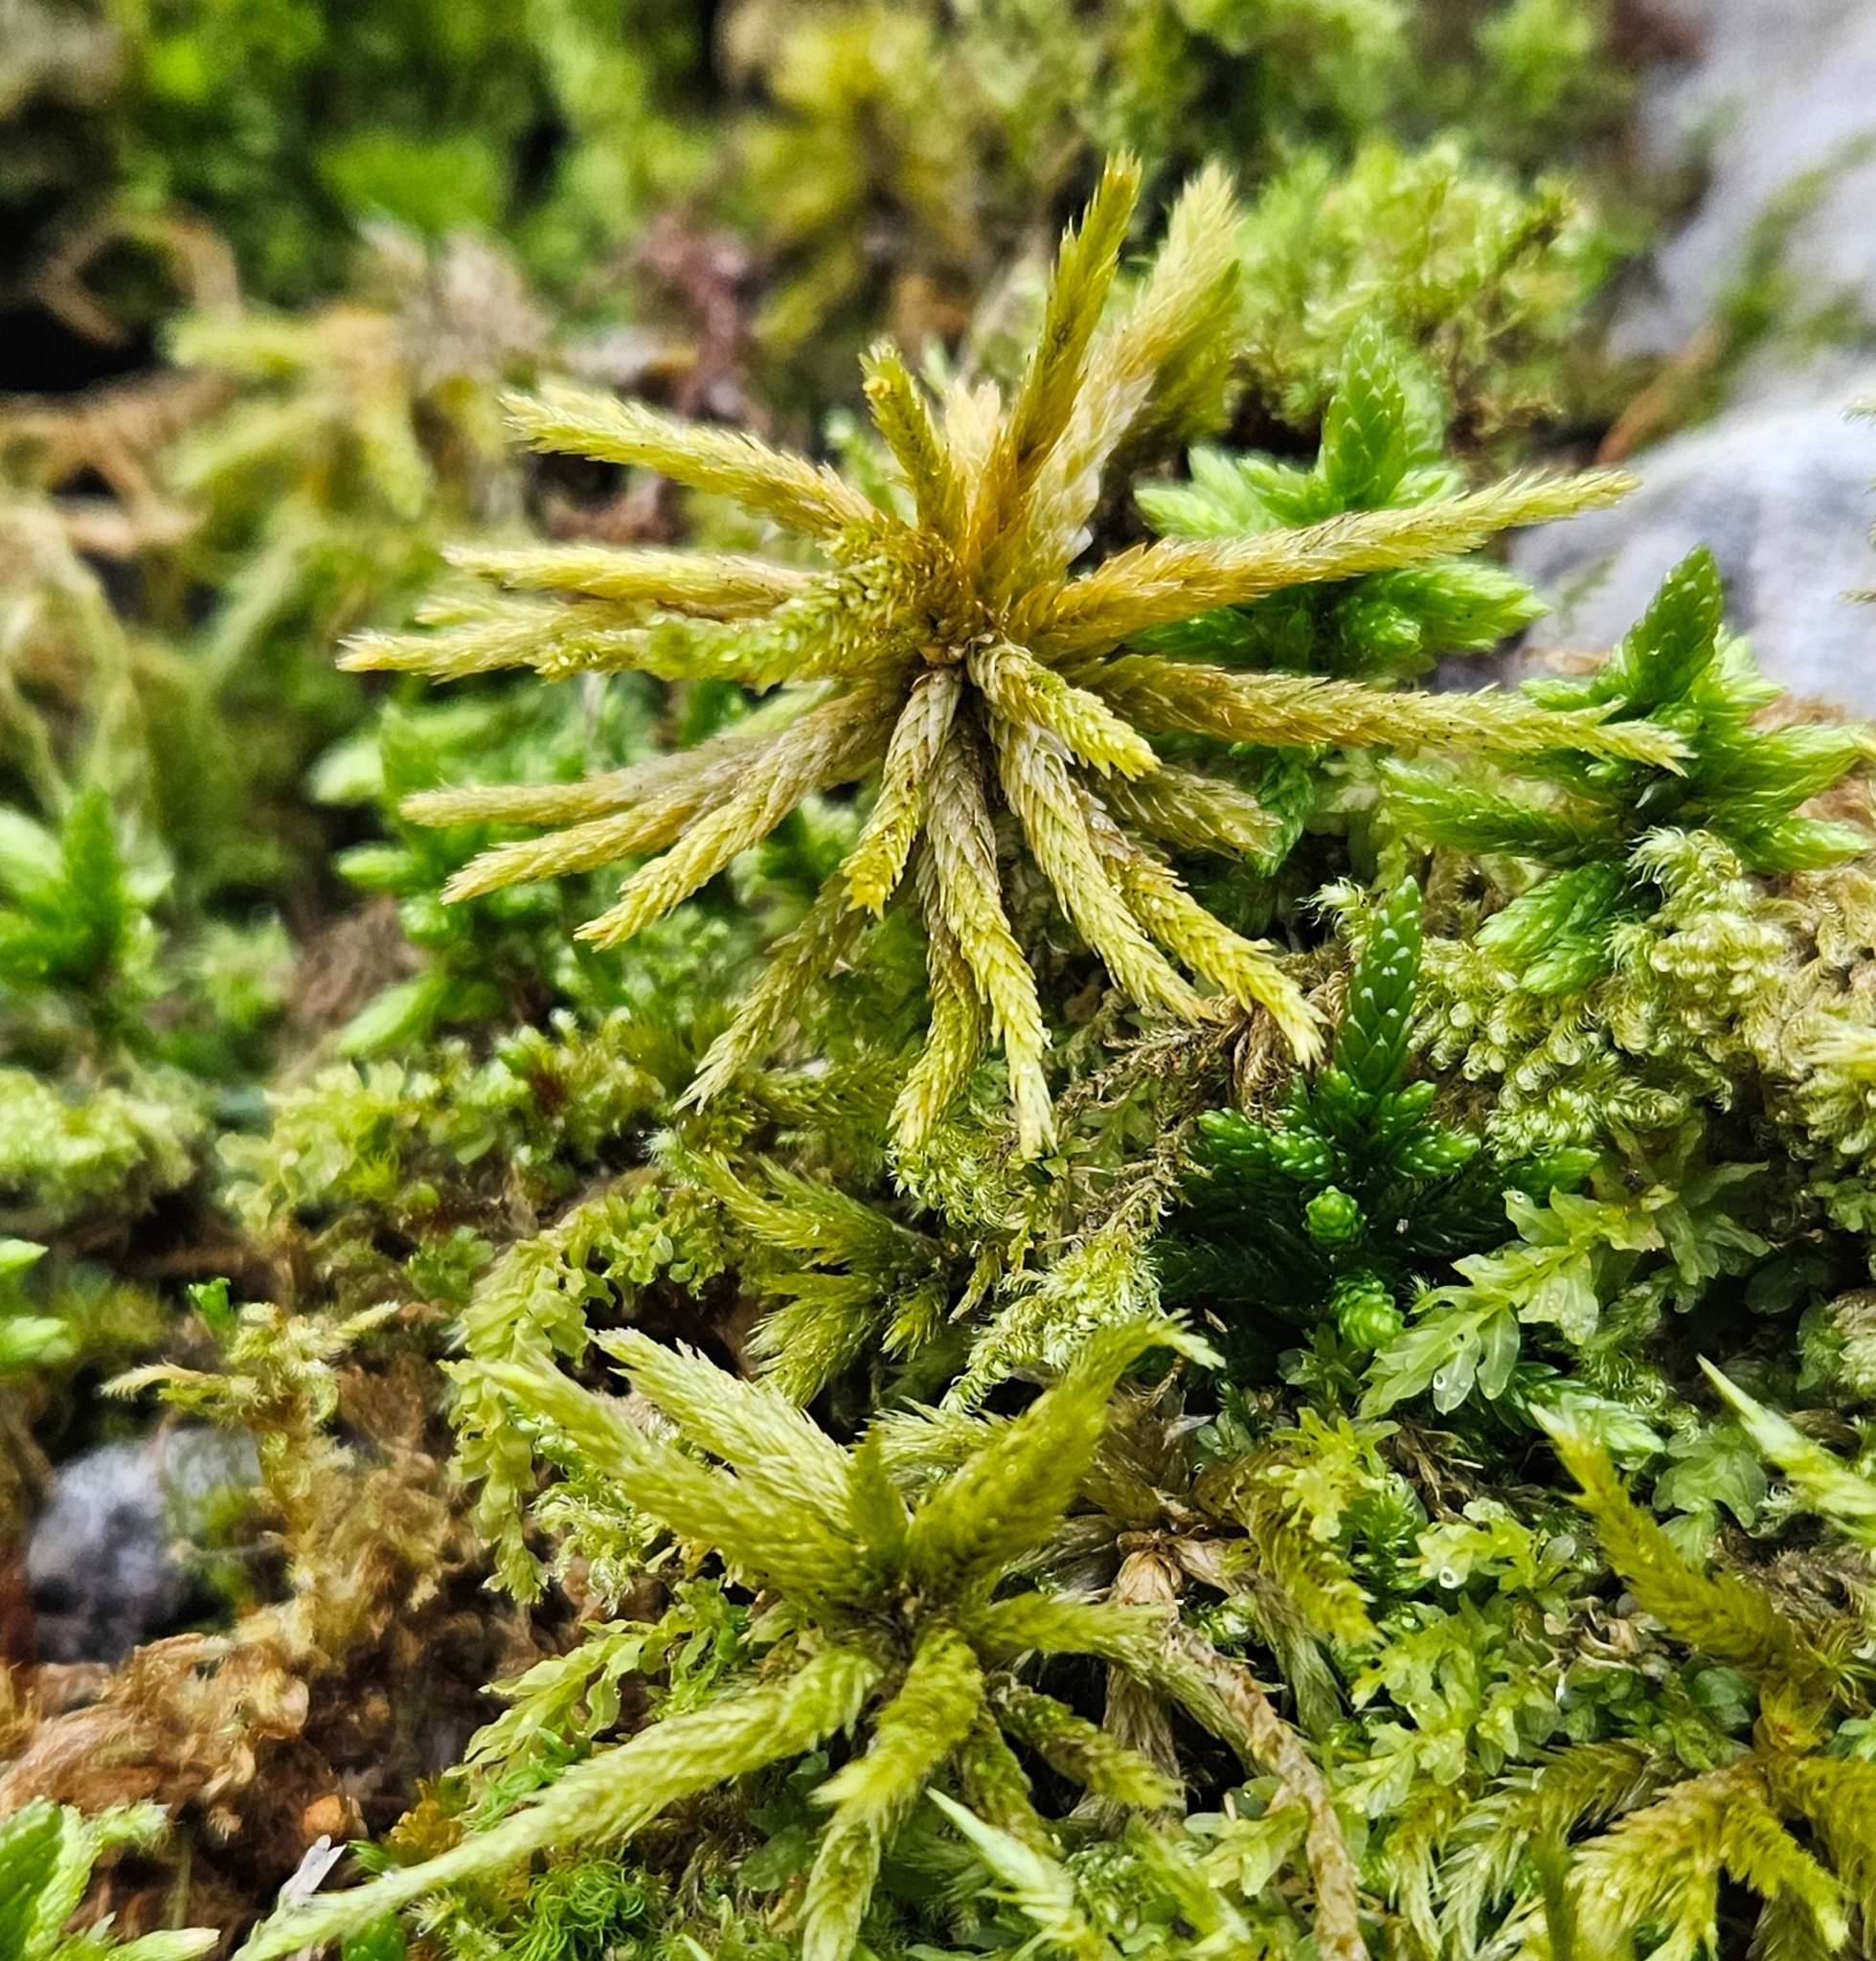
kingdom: Plantae
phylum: Bryophyta
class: Bryopsida
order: Hypnales
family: Climaciaceae
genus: Climacium
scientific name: Climacium dendroides
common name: Northern tree moss
